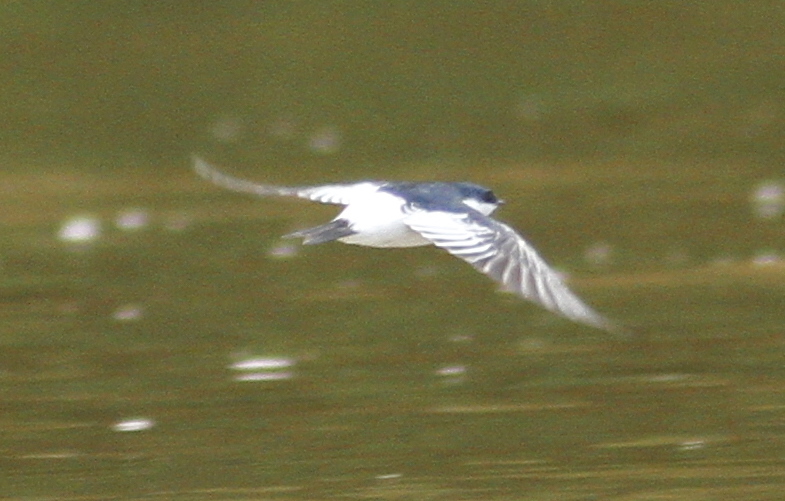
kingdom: Animalia
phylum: Chordata
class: Aves
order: Passeriformes
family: Hirundinidae
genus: Tachycineta
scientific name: Tachycineta albiventer
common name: White-winged swallow
